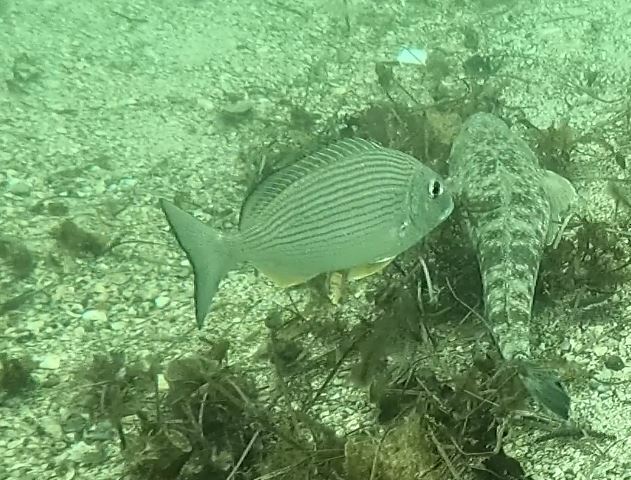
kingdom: Animalia
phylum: Chordata
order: Perciformes
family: Sparidae
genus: Rhabdosargus
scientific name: Rhabdosargus sarba
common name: Goldlined seabream
